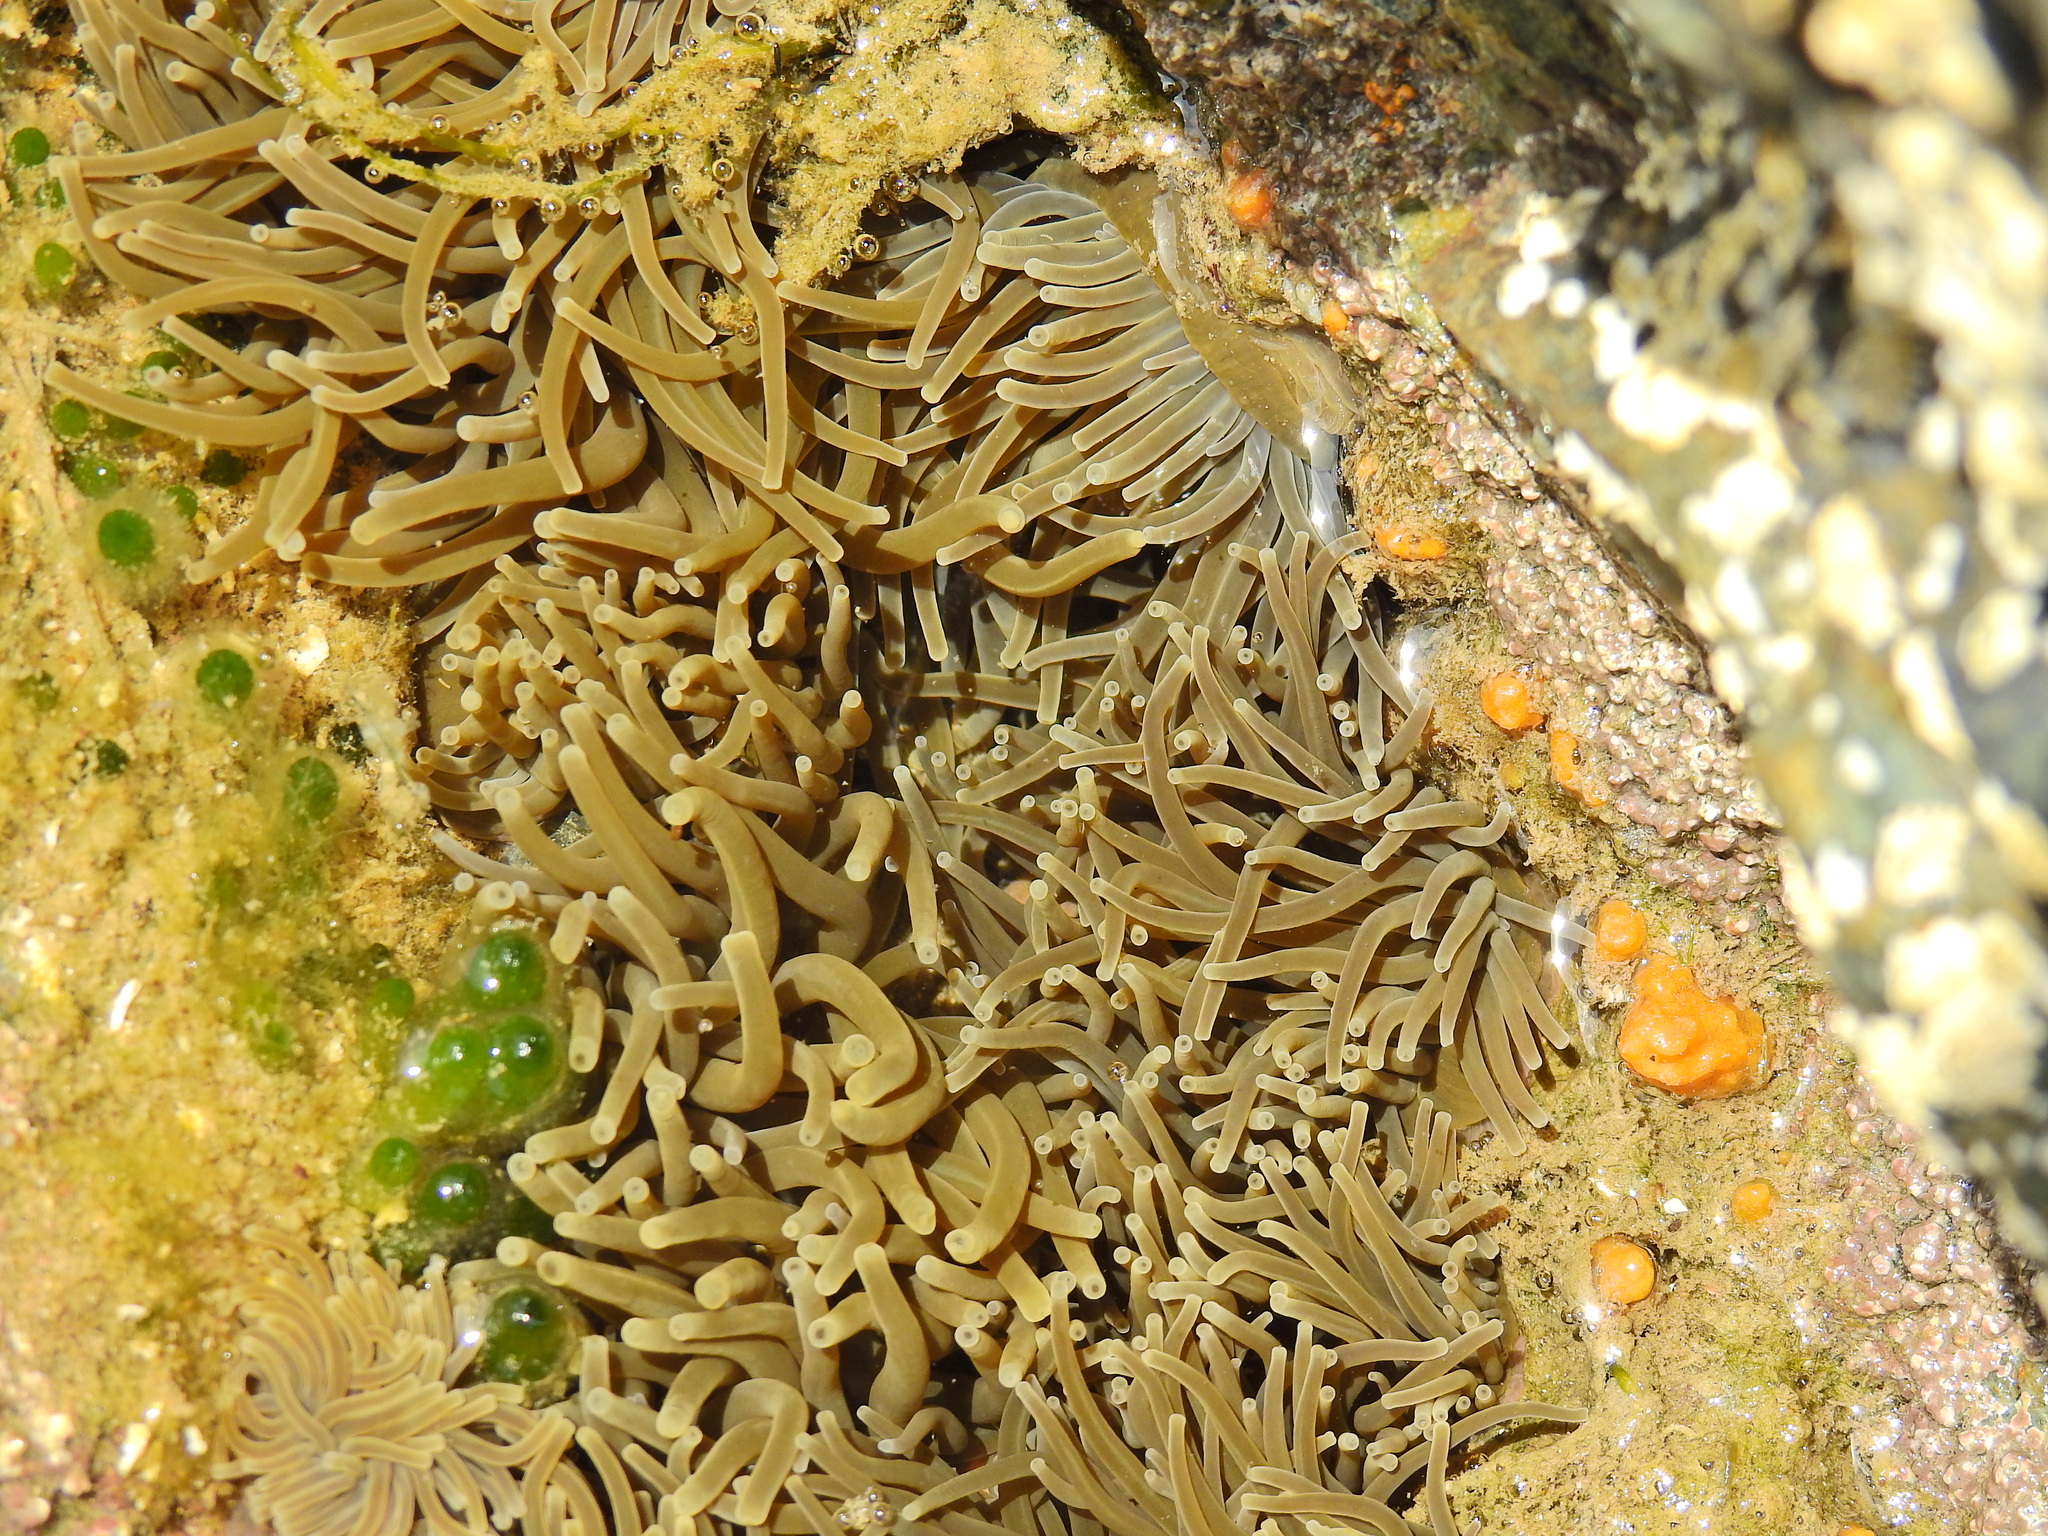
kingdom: Animalia
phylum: Cnidaria
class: Anthozoa
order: Actiniaria
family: Actiniidae
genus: Anemonia
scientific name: Anemonia viridis
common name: Snakelocks anemone
